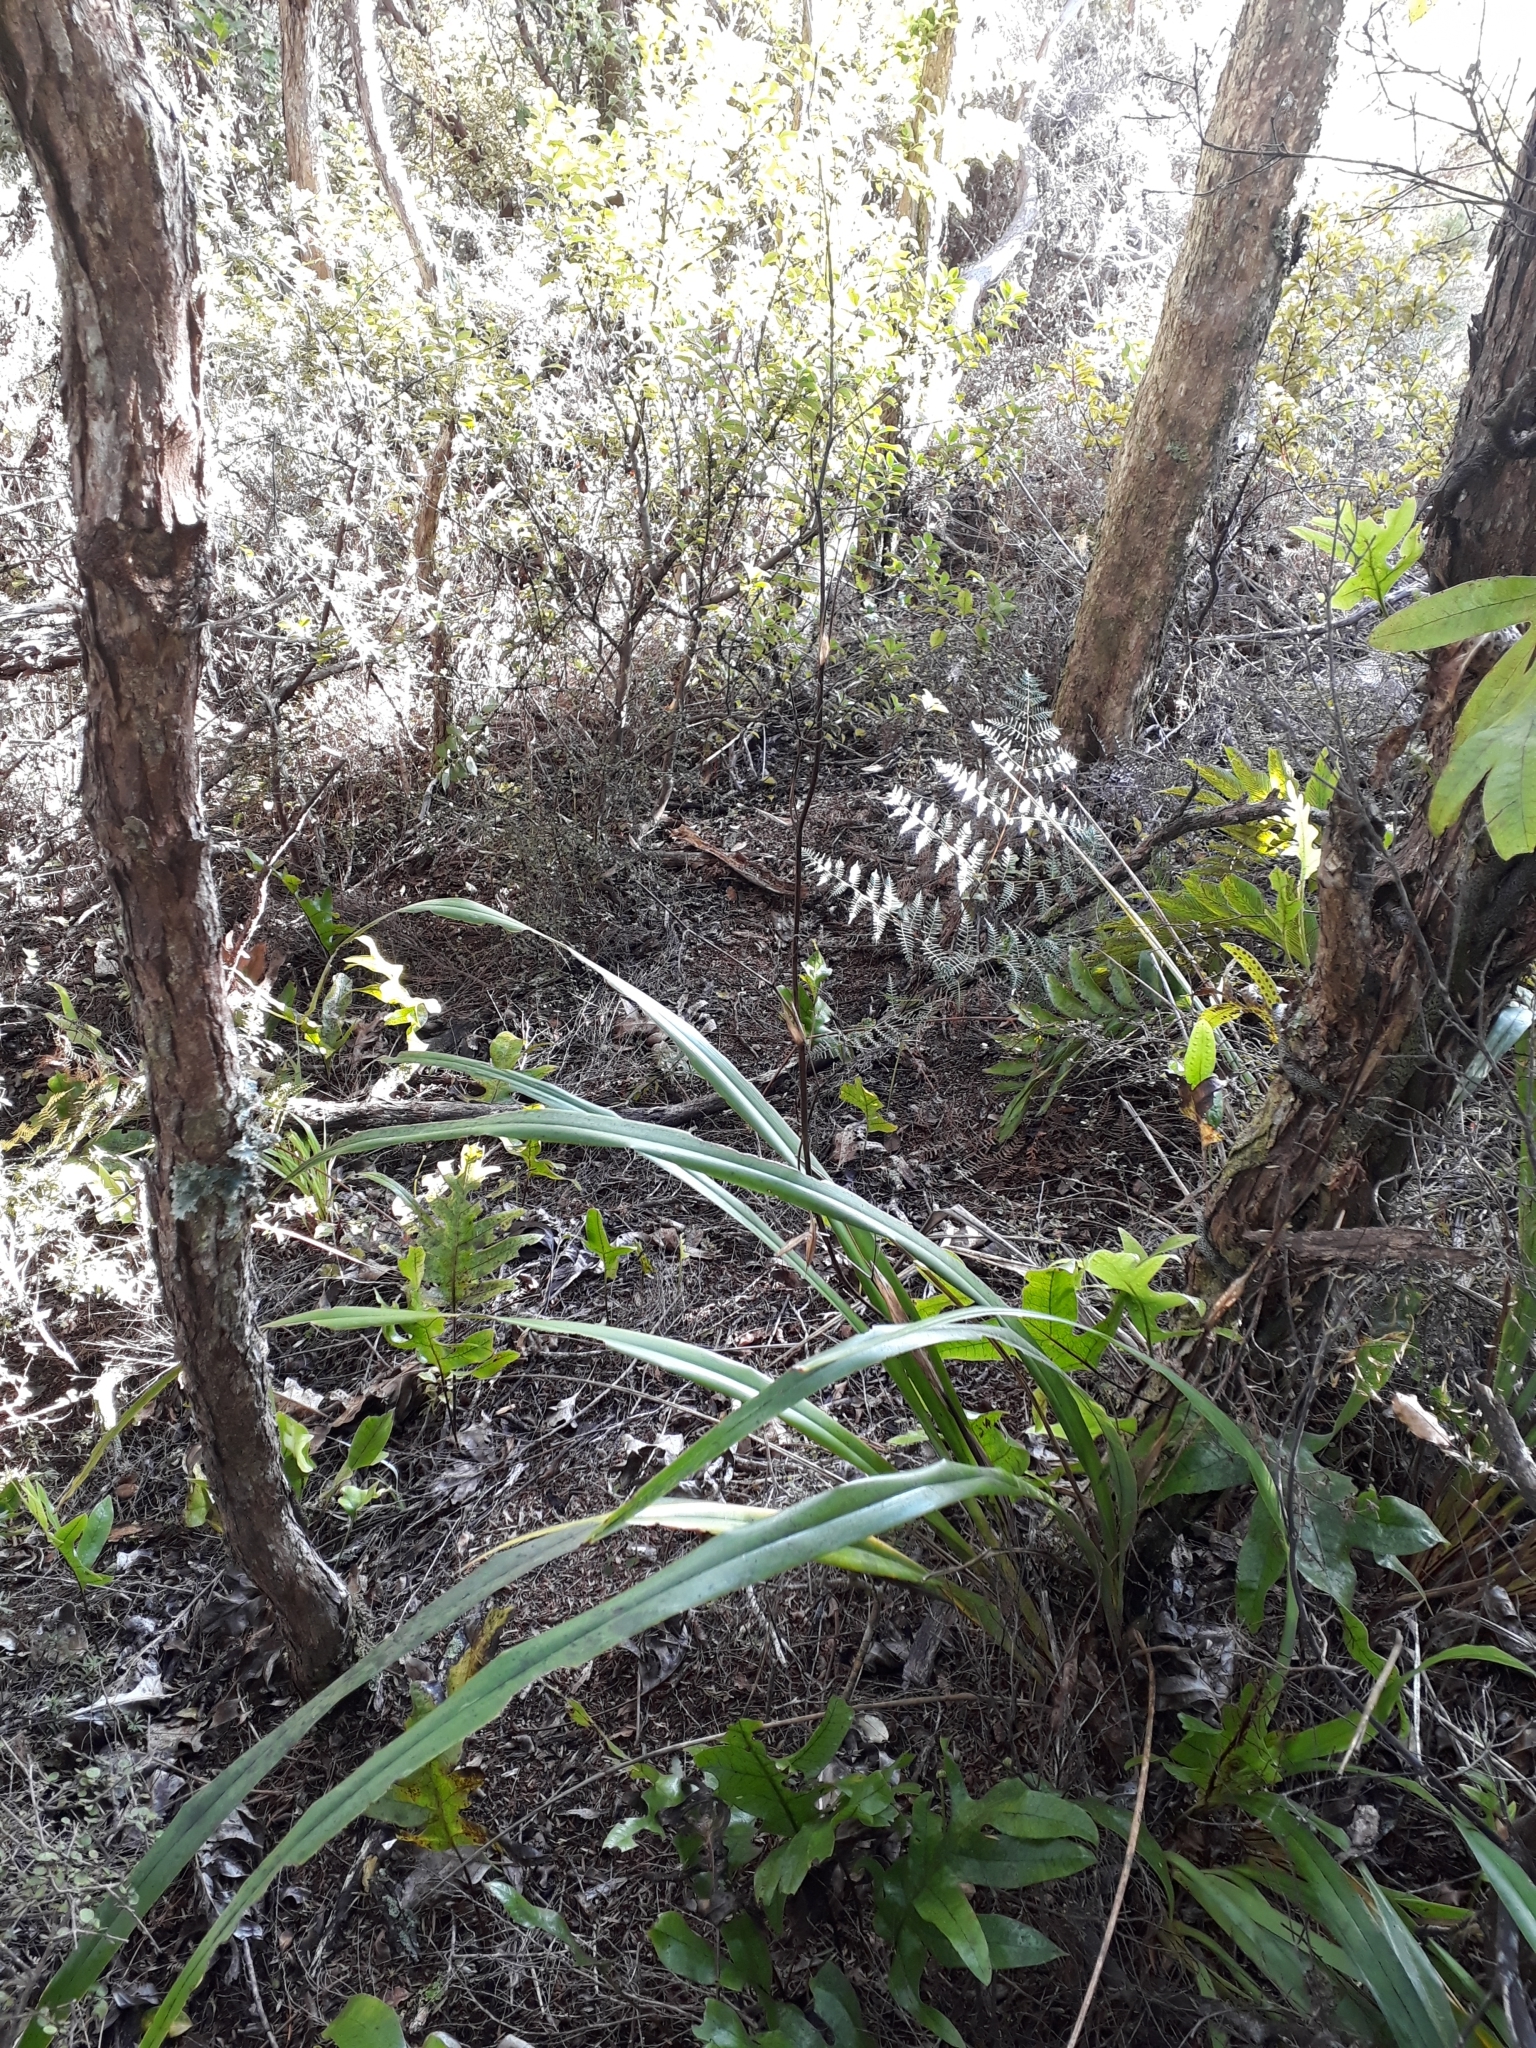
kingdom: Plantae
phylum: Tracheophyta
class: Liliopsida
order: Asparagales
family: Asphodelaceae
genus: Dianella
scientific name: Dianella latissima
